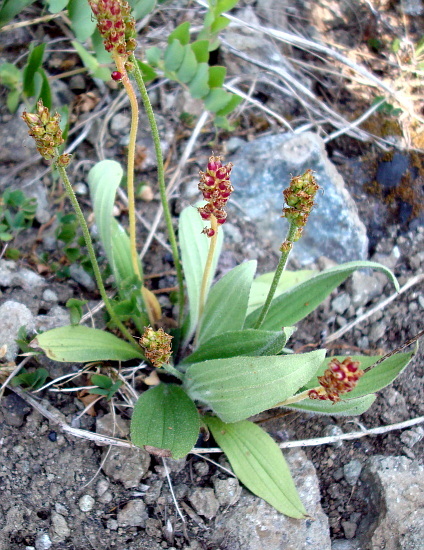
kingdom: Plantae
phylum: Tracheophyta
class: Magnoliopsida
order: Lamiales
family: Plantaginaceae
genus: Plantago
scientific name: Plantago camtschatica
